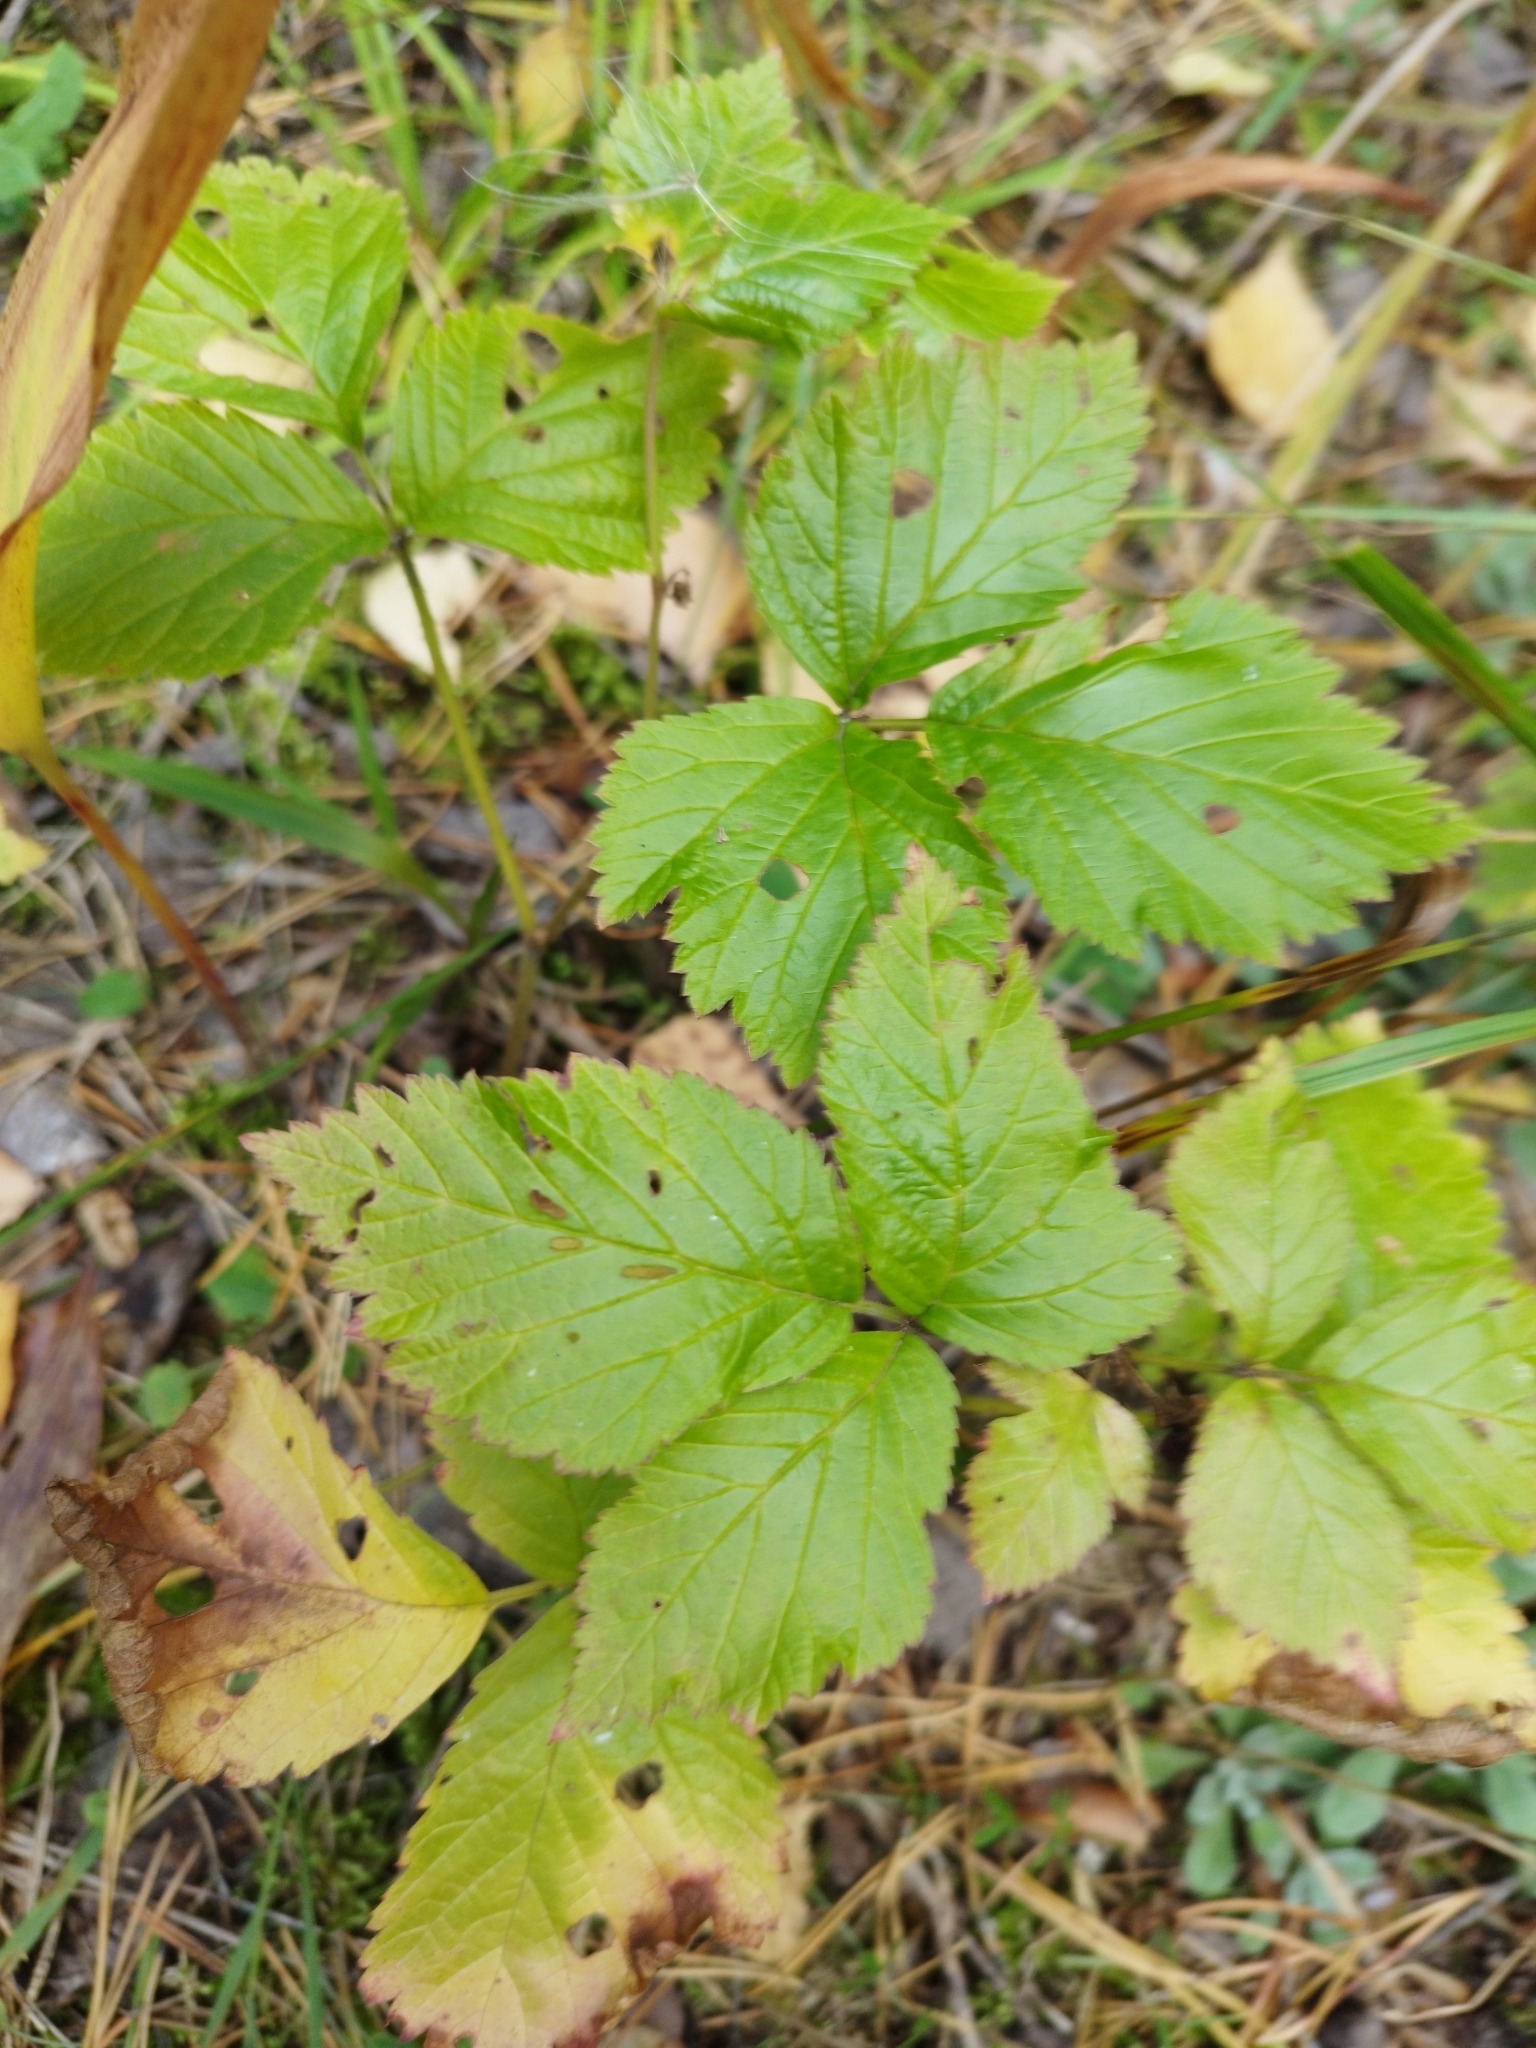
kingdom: Plantae
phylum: Tracheophyta
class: Magnoliopsida
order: Rosales
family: Rosaceae
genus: Rubus
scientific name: Rubus saxatilis
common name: Stone bramble
